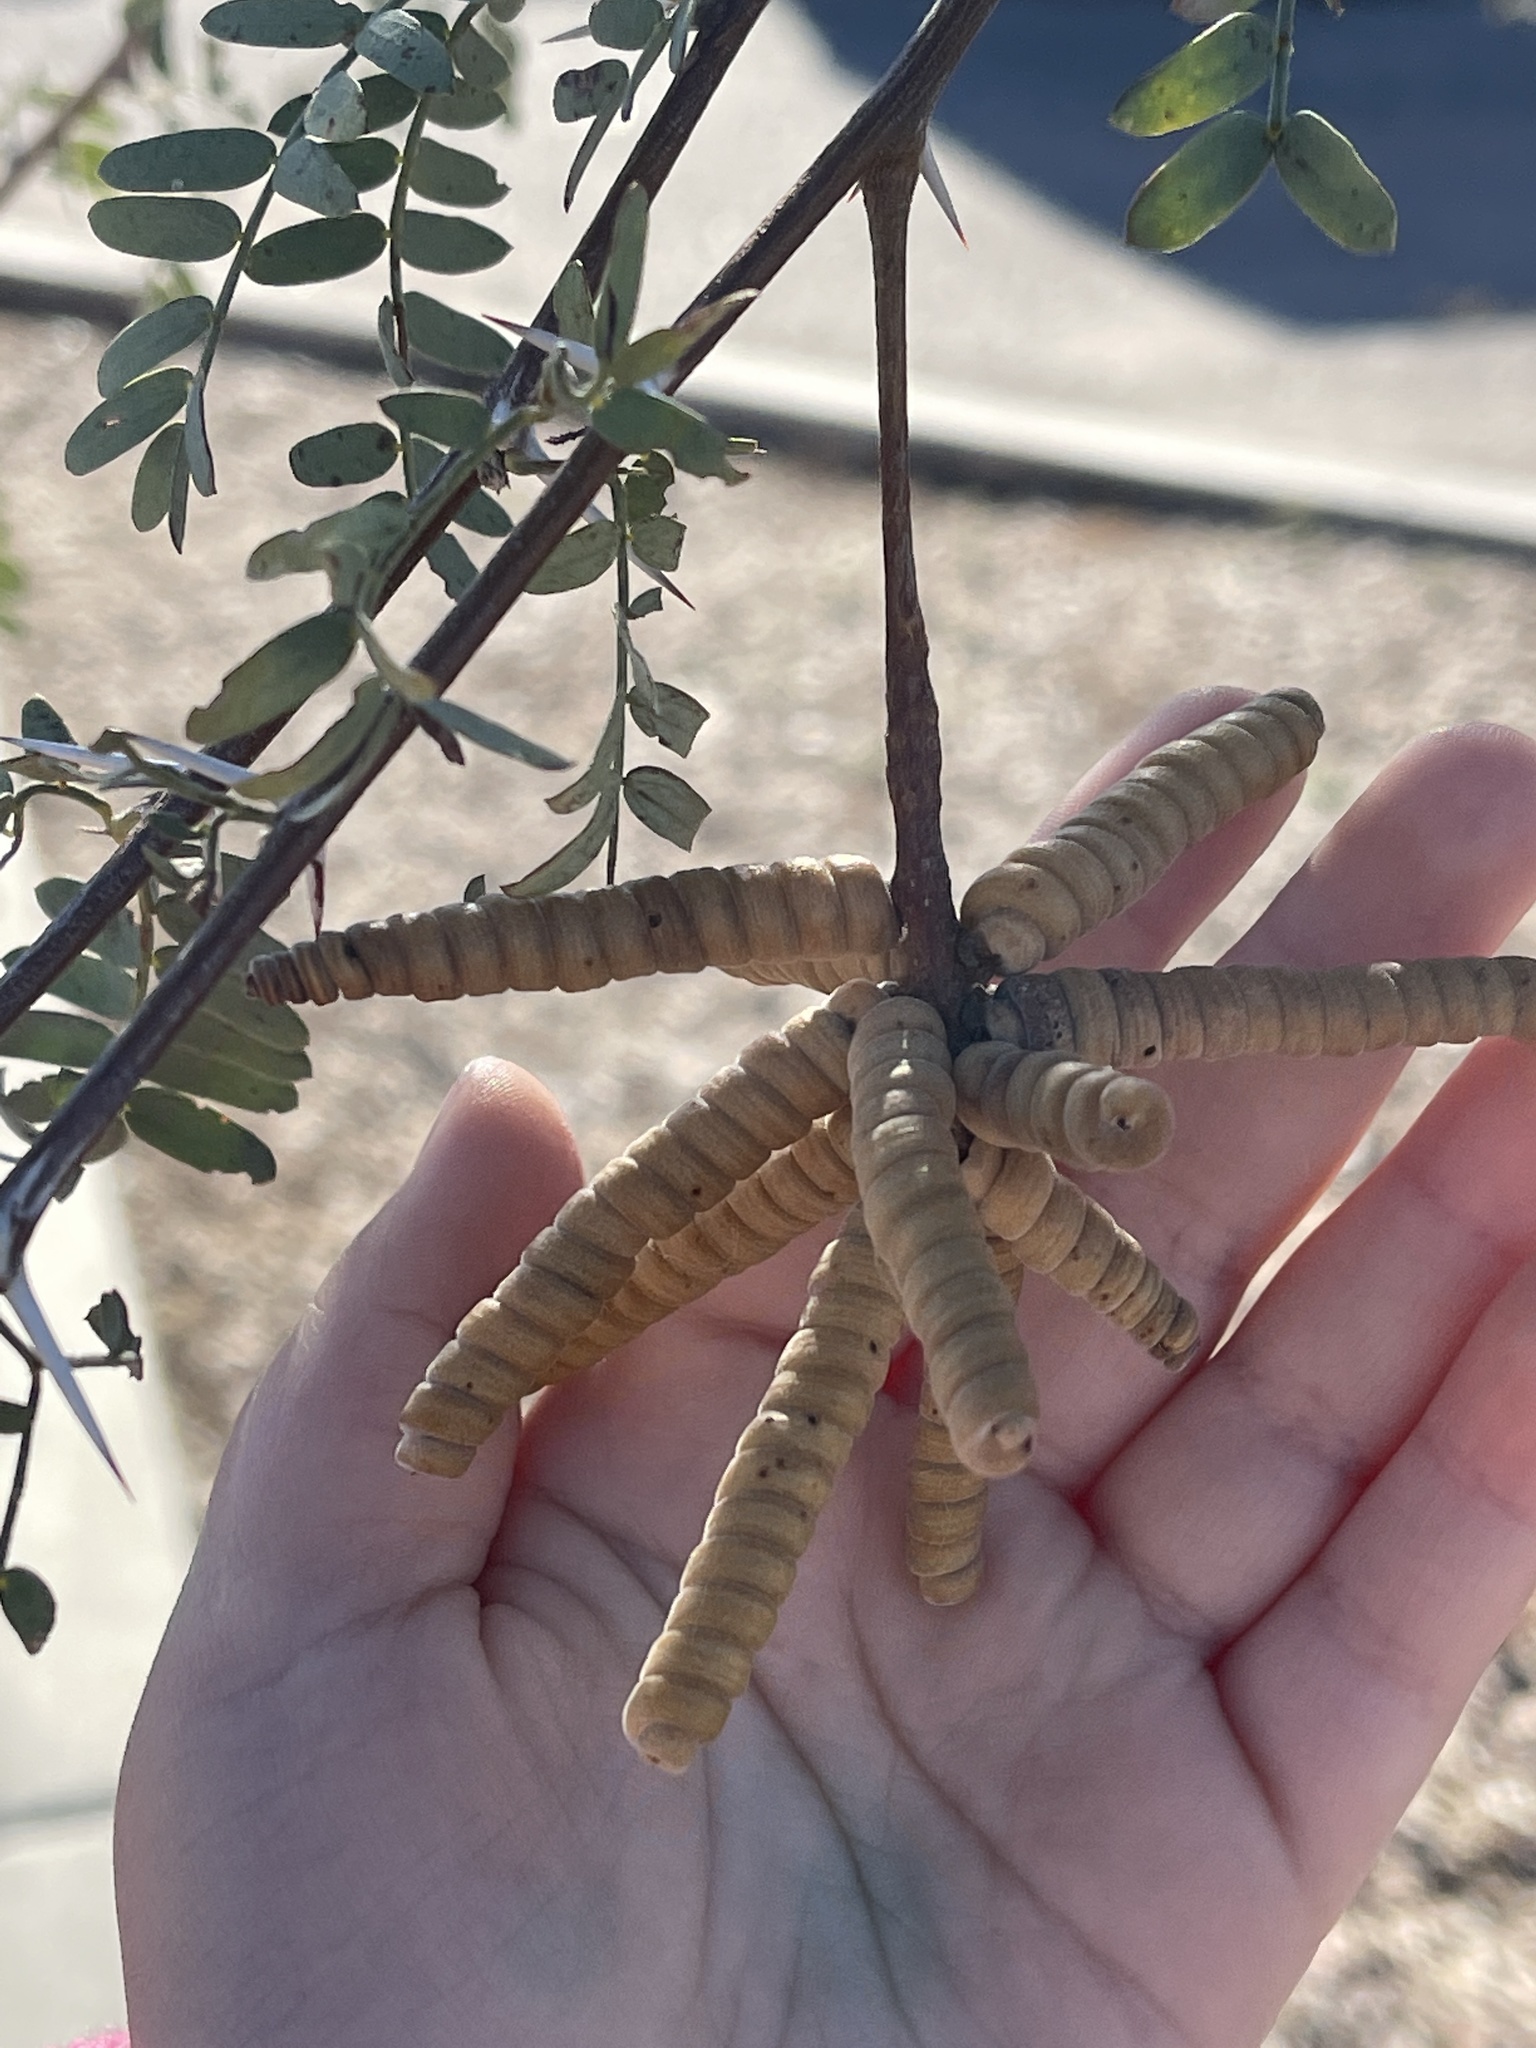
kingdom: Plantae
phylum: Tracheophyta
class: Magnoliopsida
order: Fabales
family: Fabaceae
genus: Prosopis
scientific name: Prosopis pubescens
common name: Screw-bean
